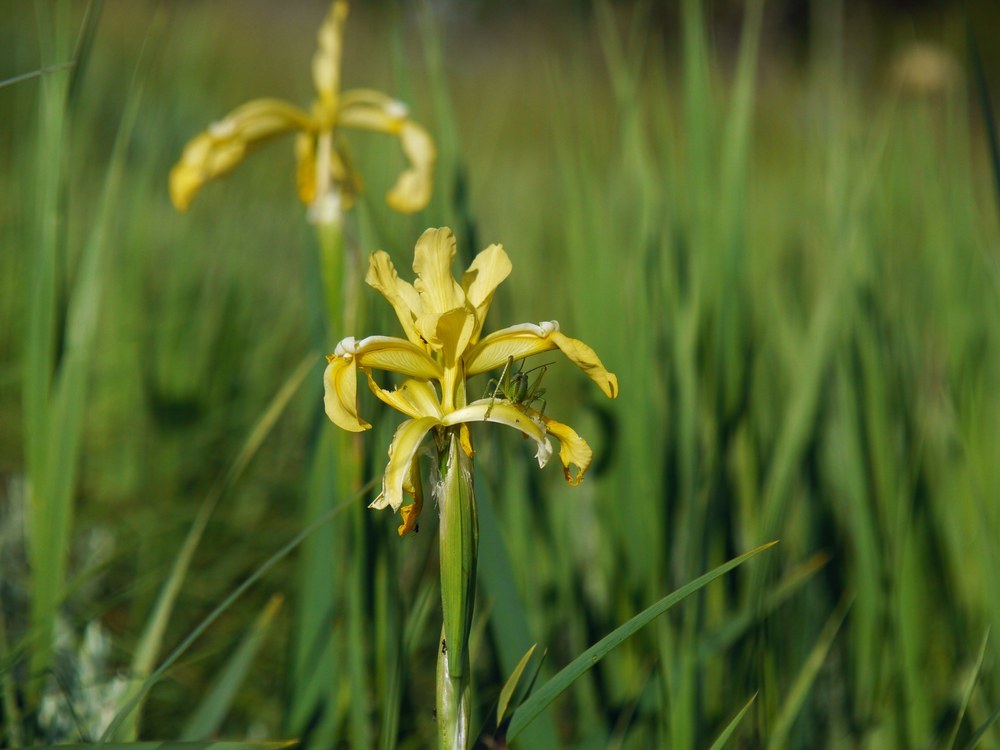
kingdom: Plantae
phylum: Tracheophyta
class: Liliopsida
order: Asparagales
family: Iridaceae
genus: Iris
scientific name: Iris halophila
